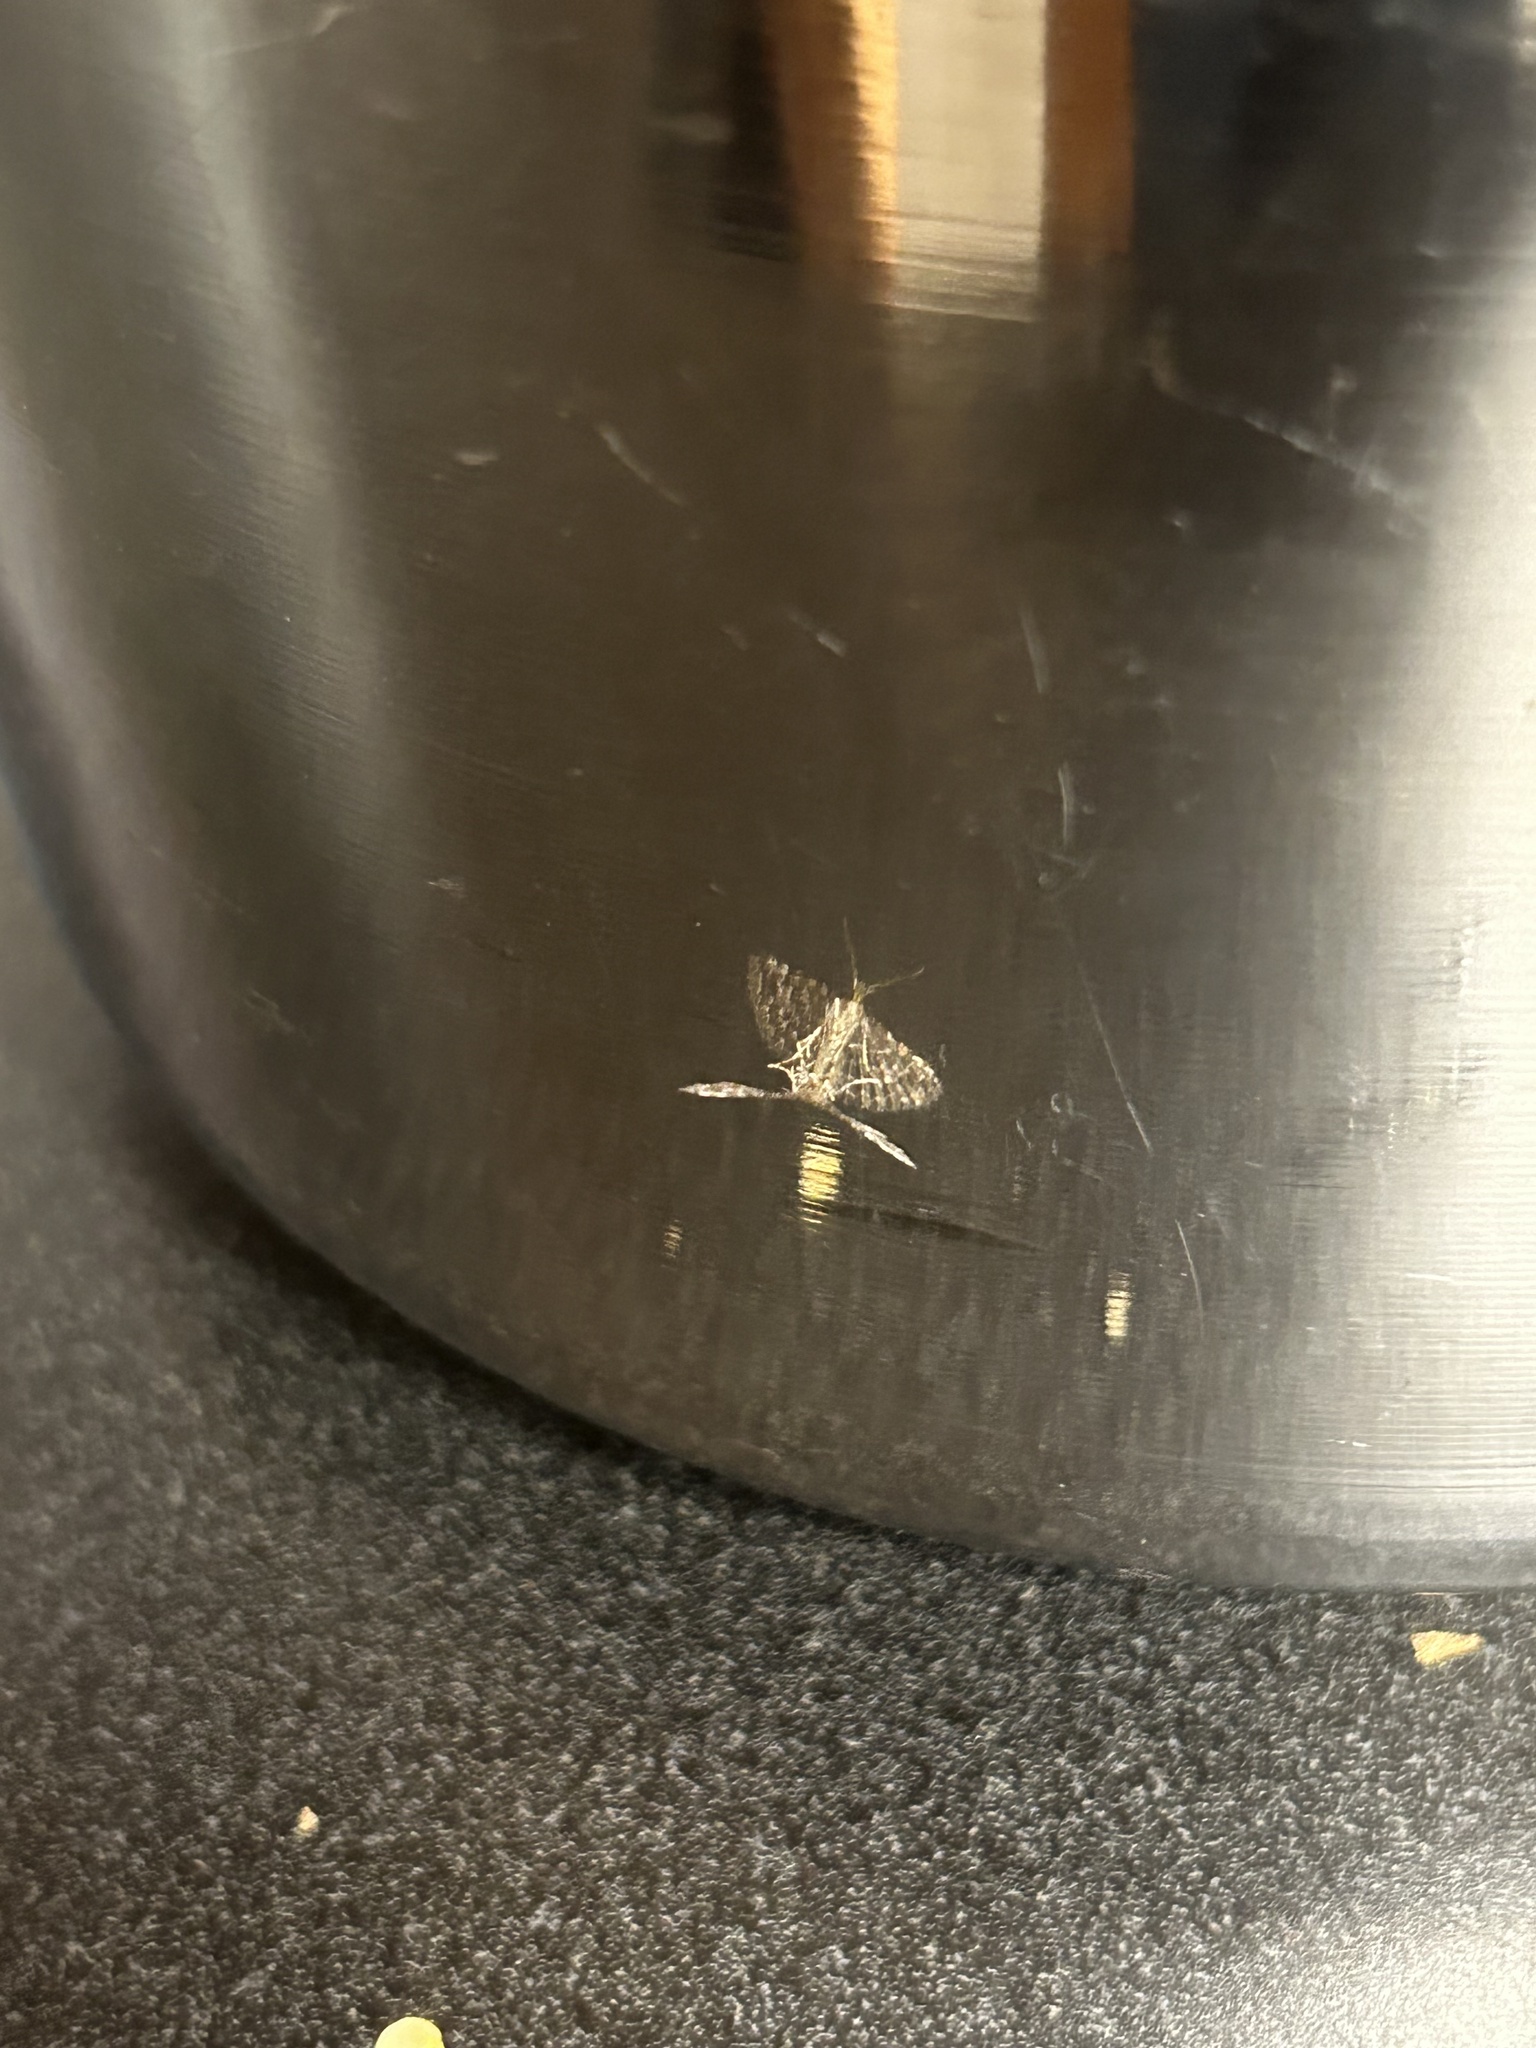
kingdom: Animalia
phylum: Arthropoda
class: Insecta
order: Lepidoptera
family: Alucitidae
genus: Alucita
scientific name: Alucita montana
